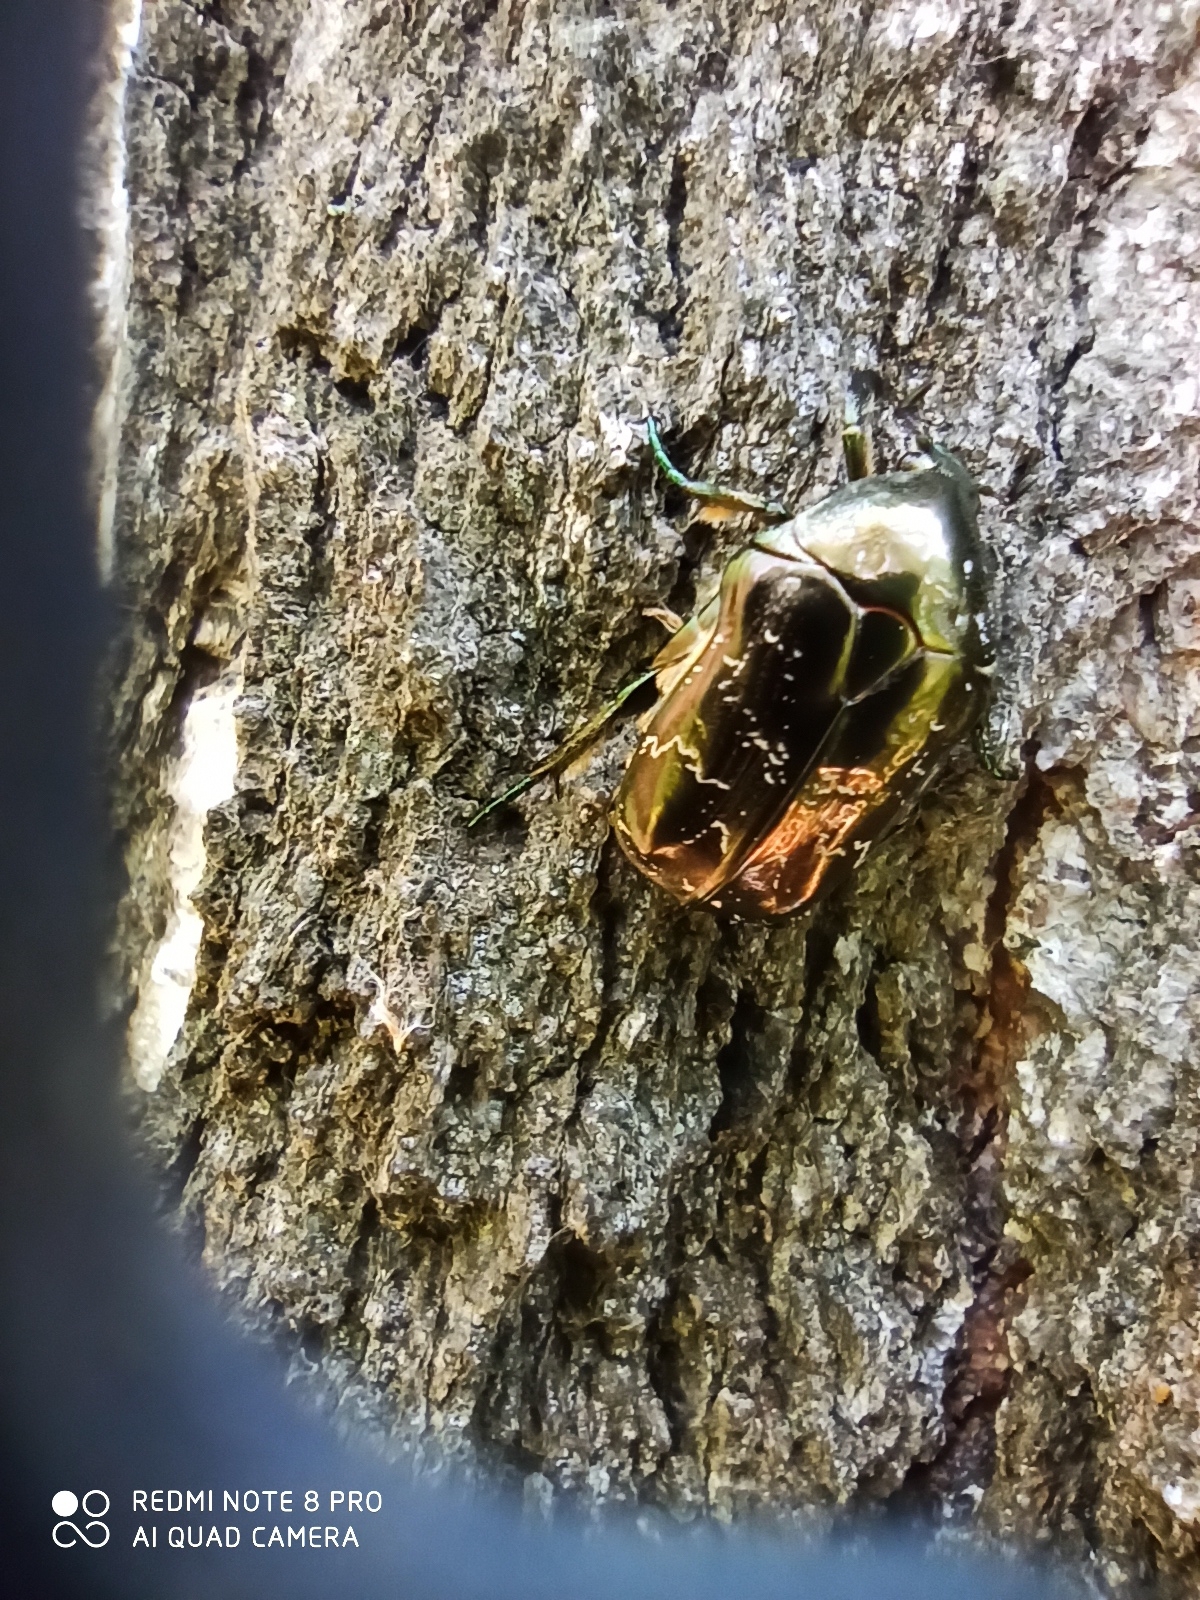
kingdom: Animalia
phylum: Arthropoda
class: Insecta
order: Coleoptera
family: Scarabaeidae
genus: Protaetia
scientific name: Protaetia marmorata
